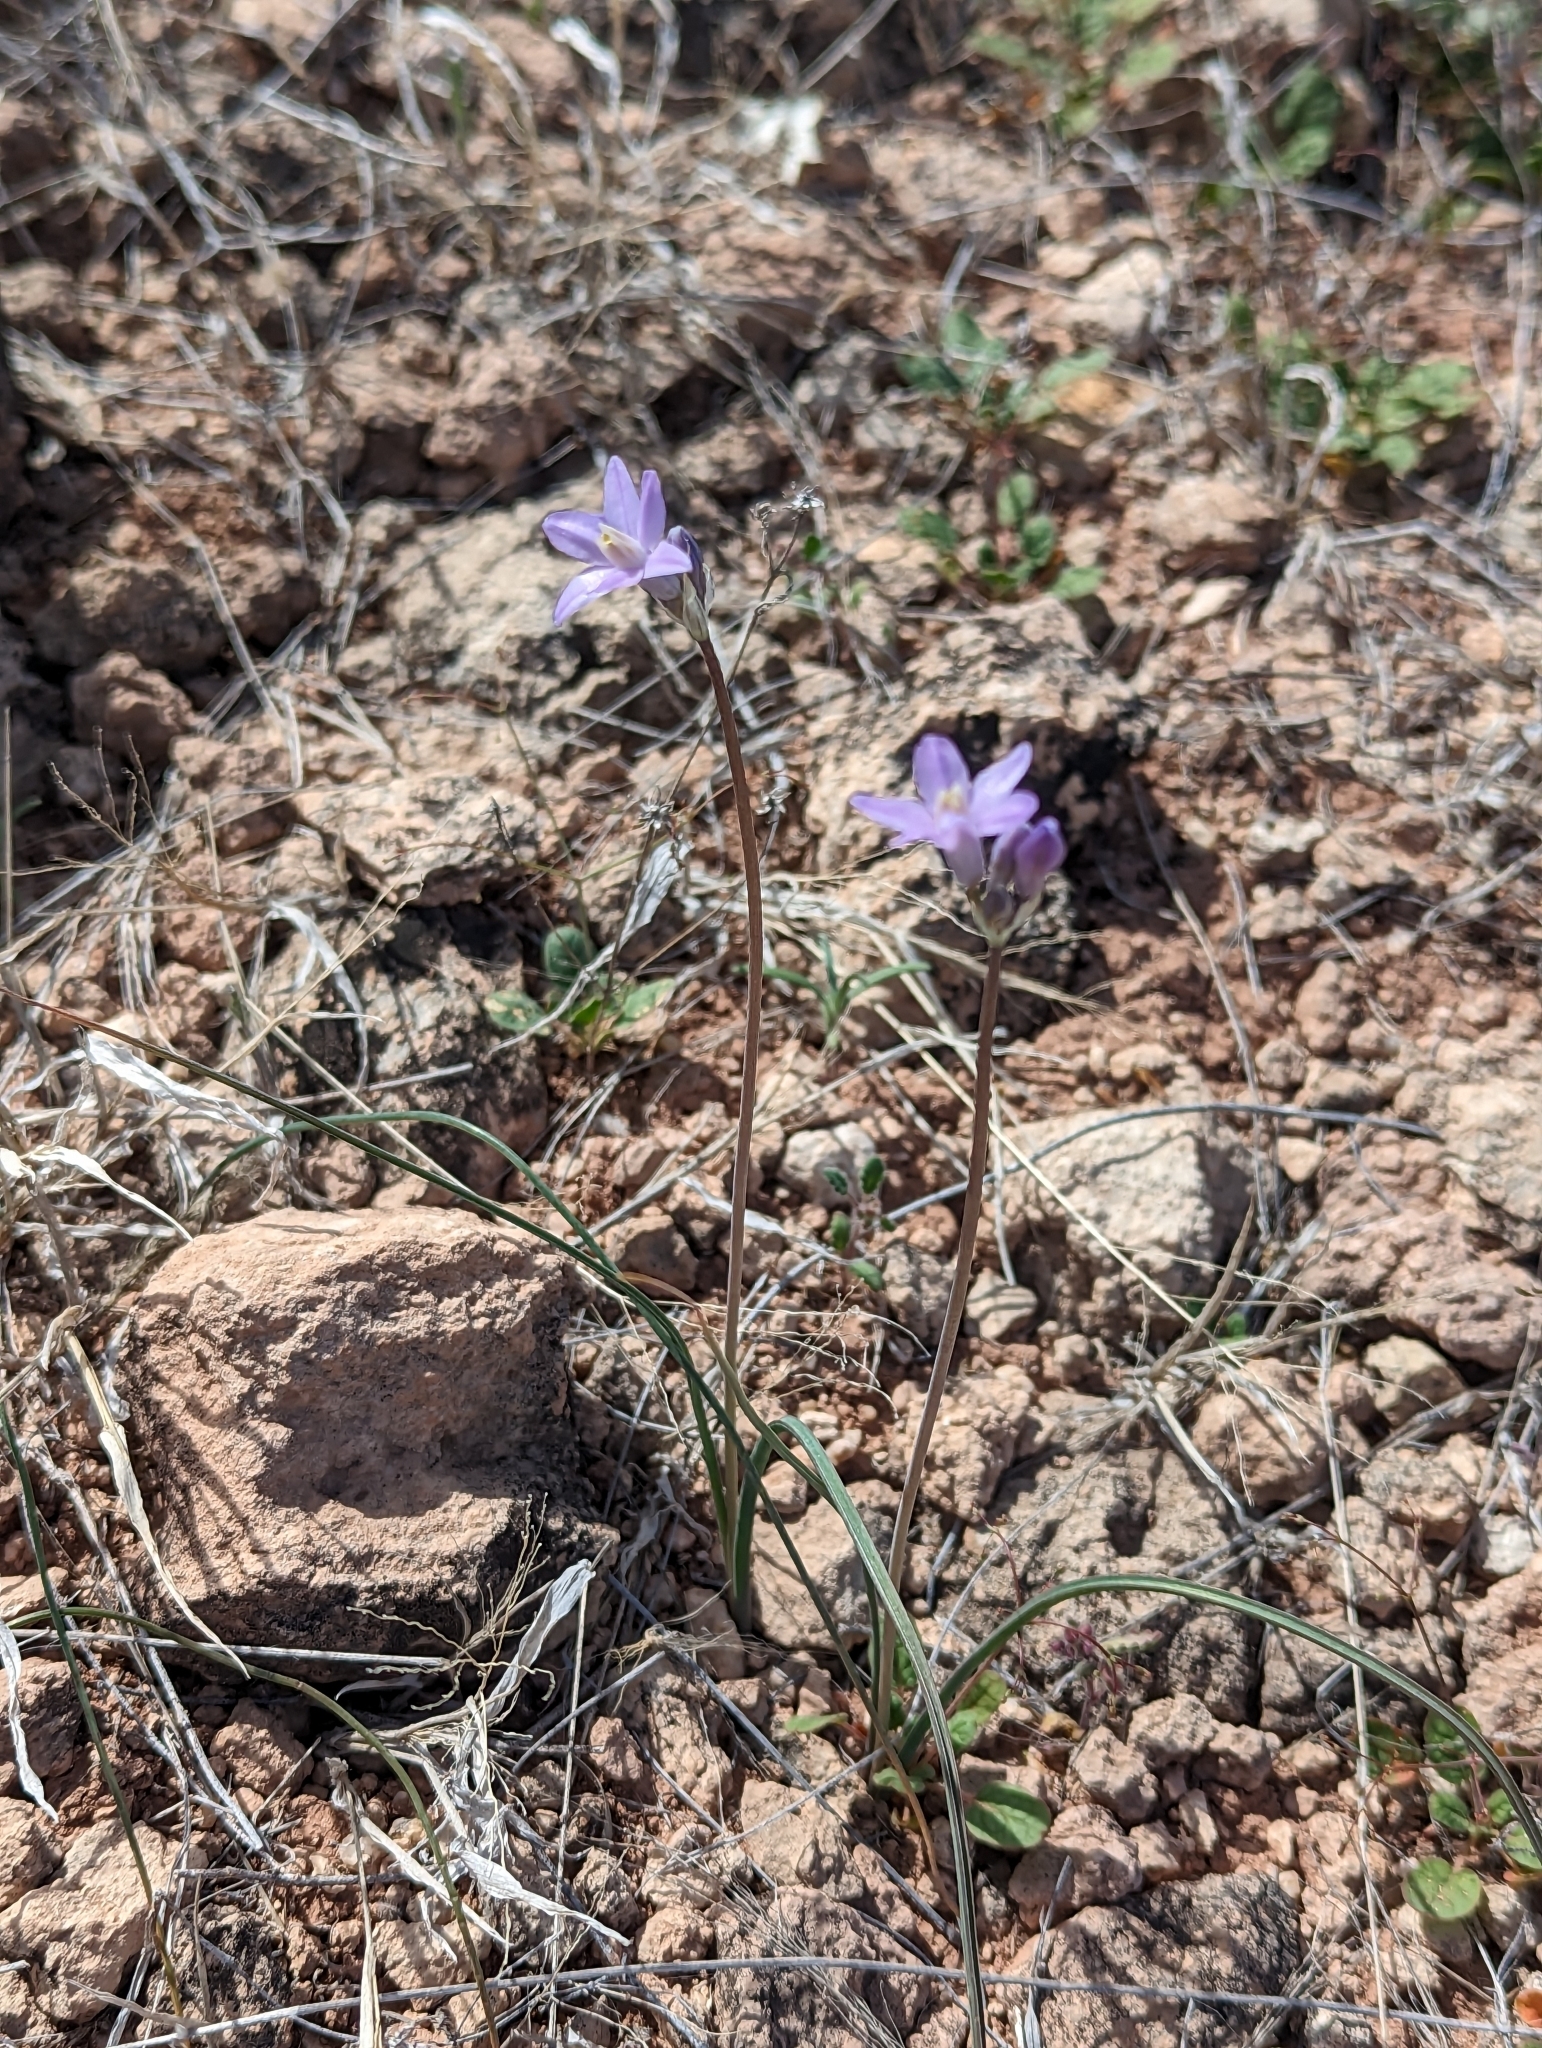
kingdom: Plantae
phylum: Tracheophyta
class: Liliopsida
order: Asparagales
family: Asparagaceae
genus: Dipterostemon
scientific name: Dipterostemon capitatus
